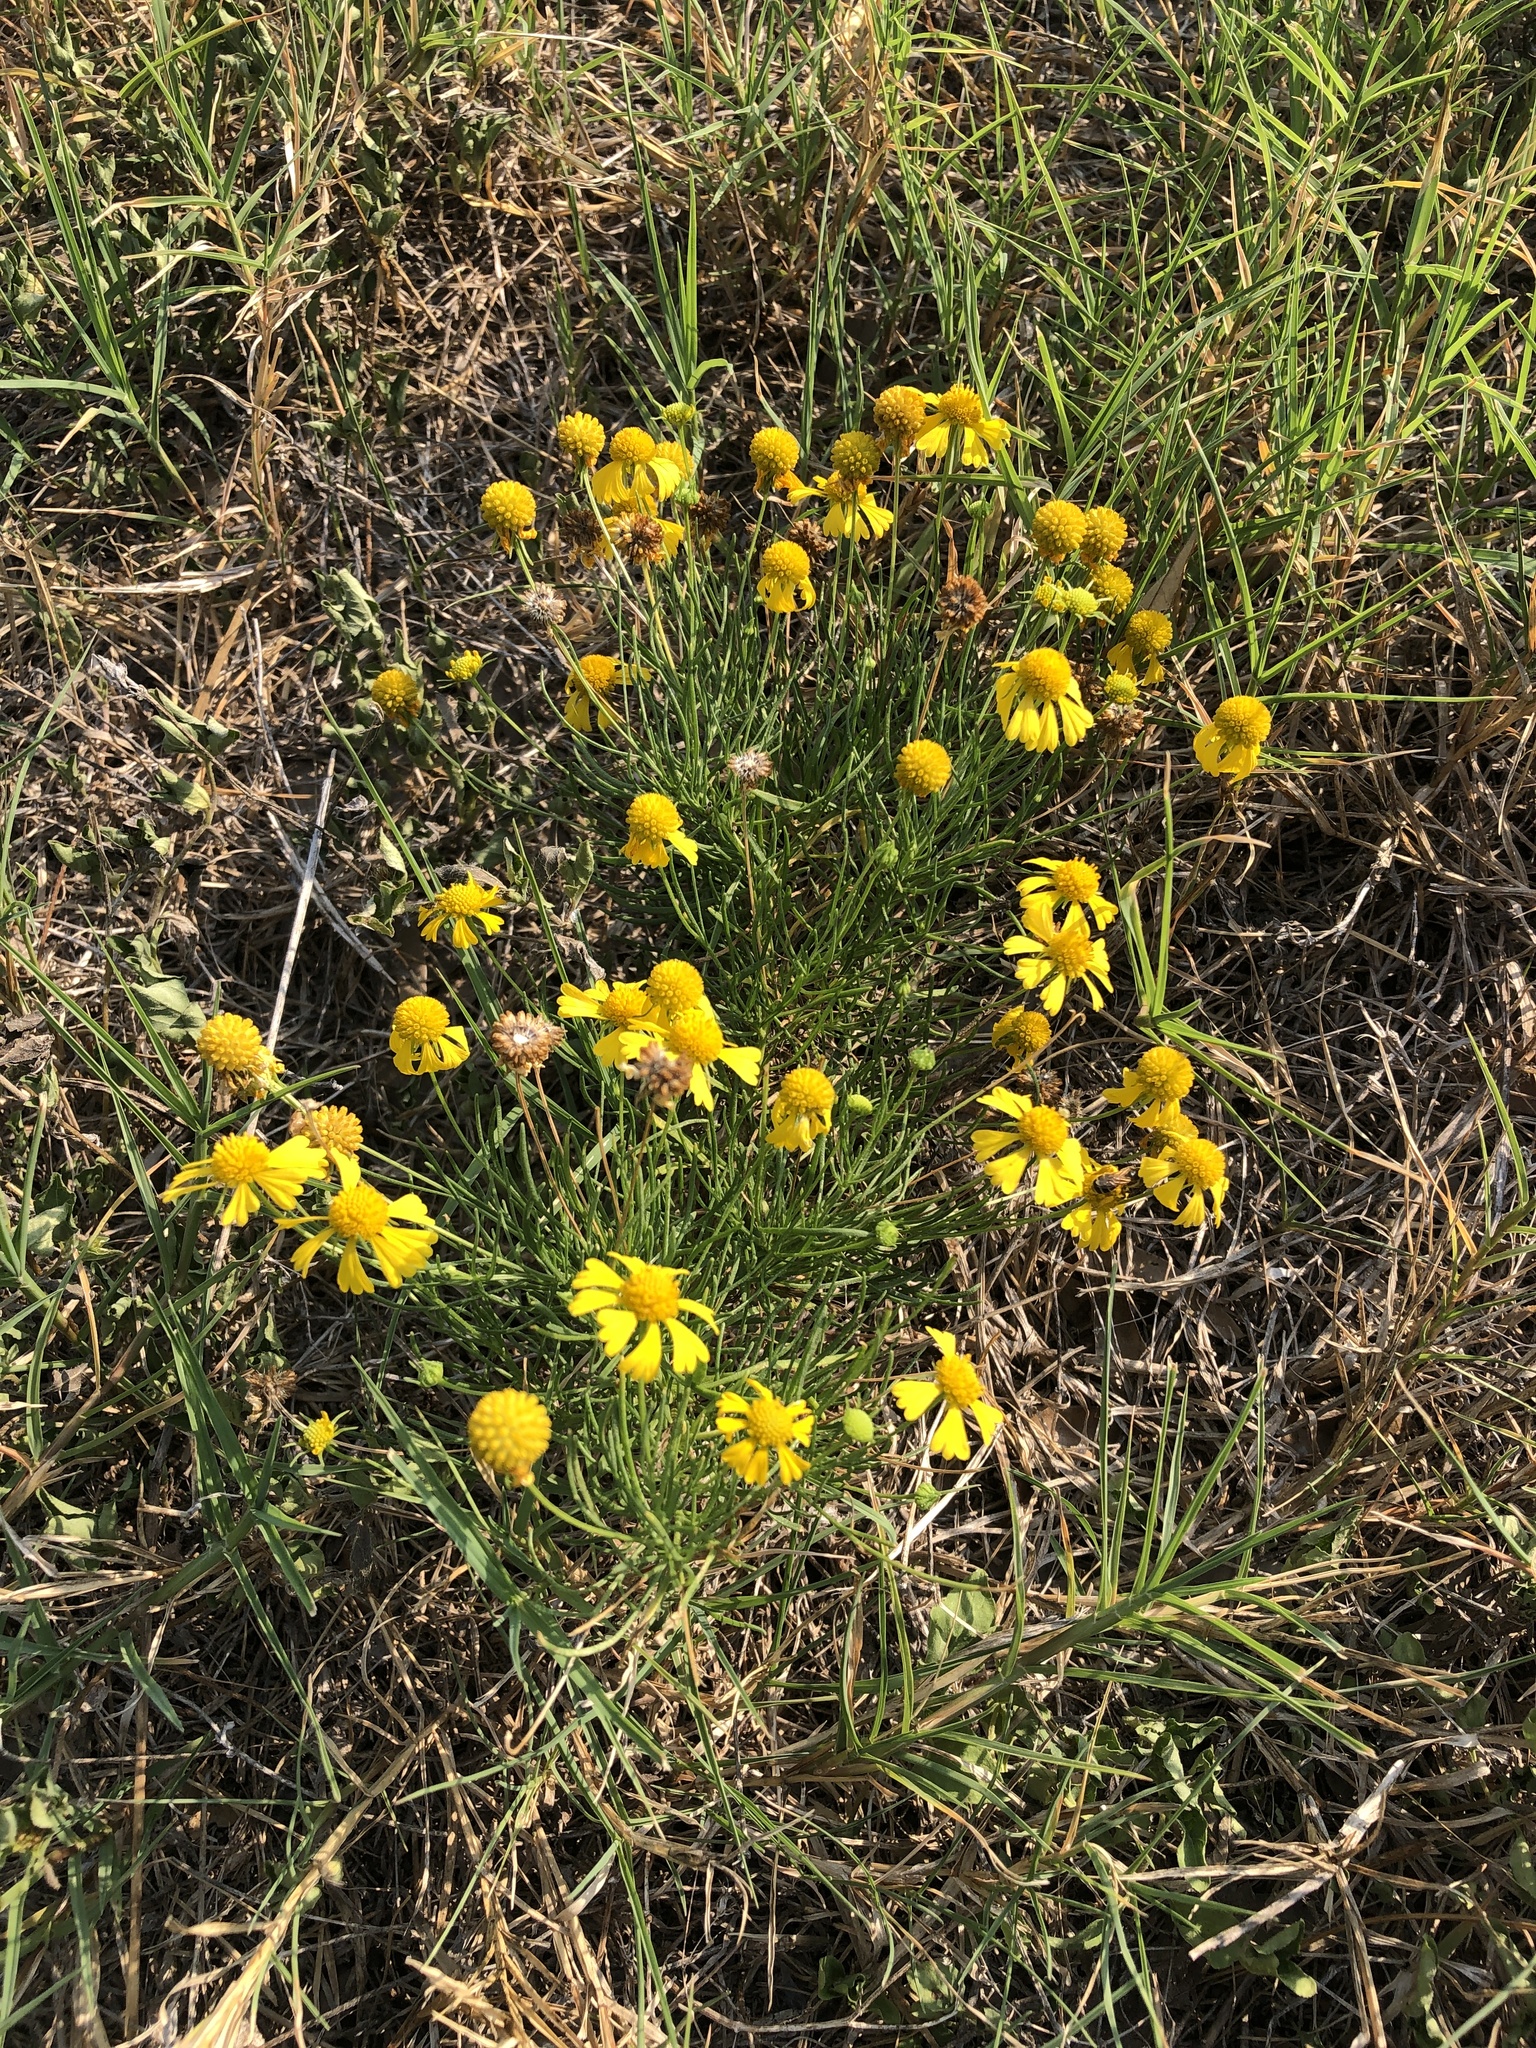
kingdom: Plantae
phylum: Tracheophyta
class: Magnoliopsida
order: Asterales
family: Asteraceae
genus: Helenium
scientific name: Helenium amarum
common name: Bitter sneezeweed
